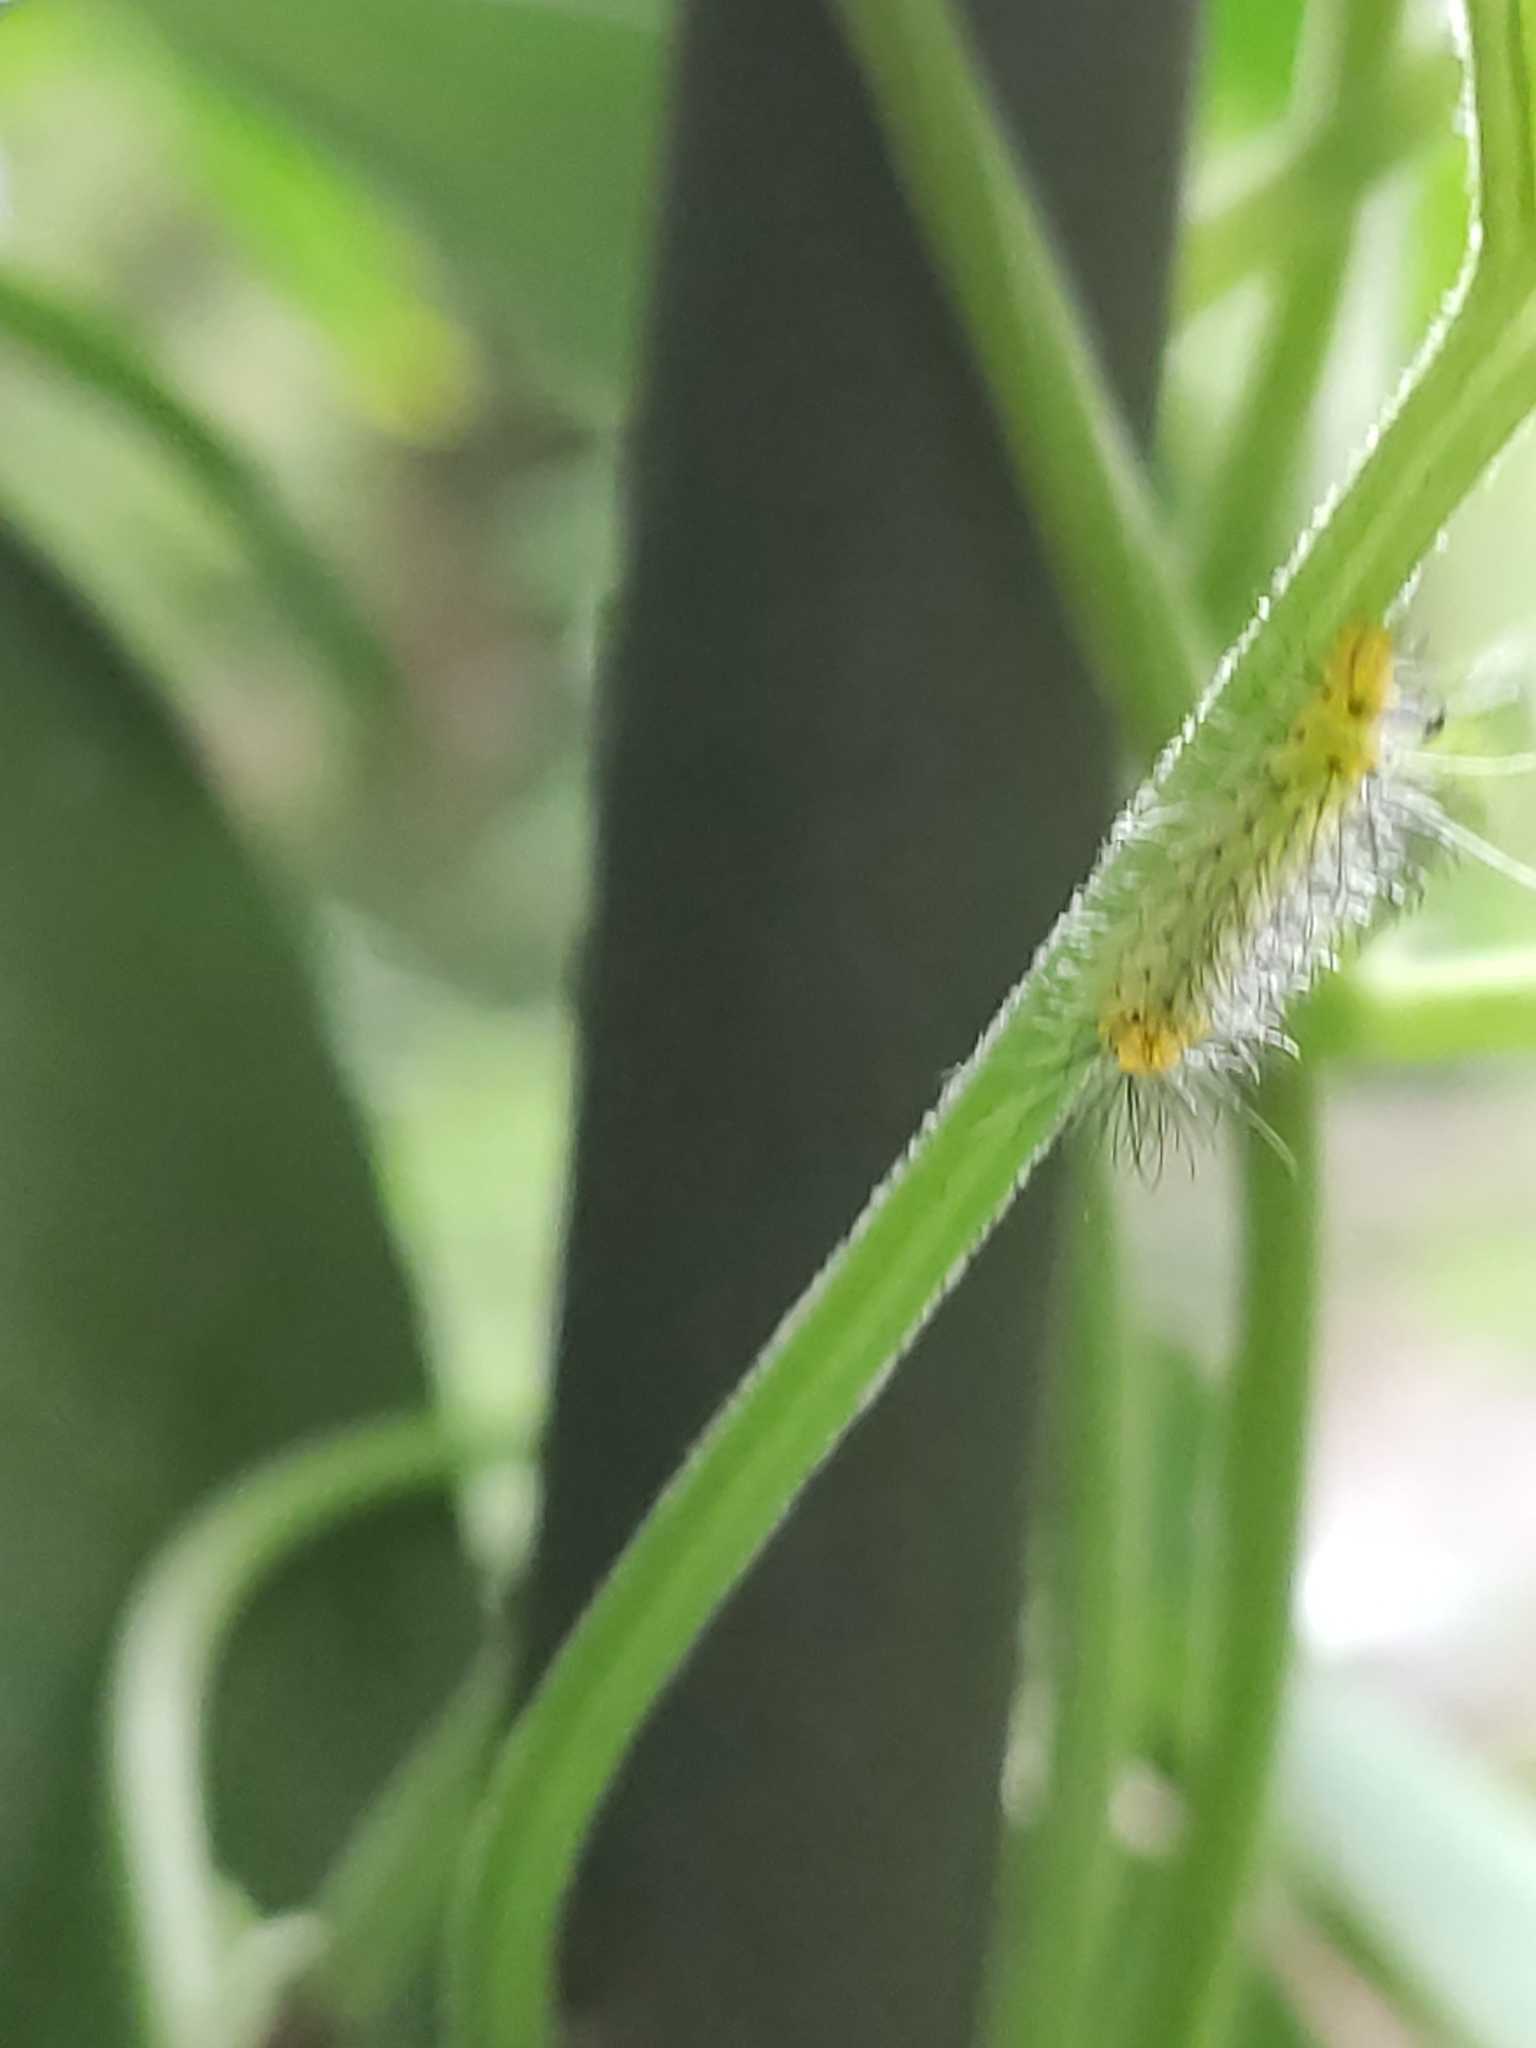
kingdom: Animalia
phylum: Arthropoda
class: Insecta
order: Lepidoptera
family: Erebidae
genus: Cosmosoma
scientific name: Cosmosoma myrodora
